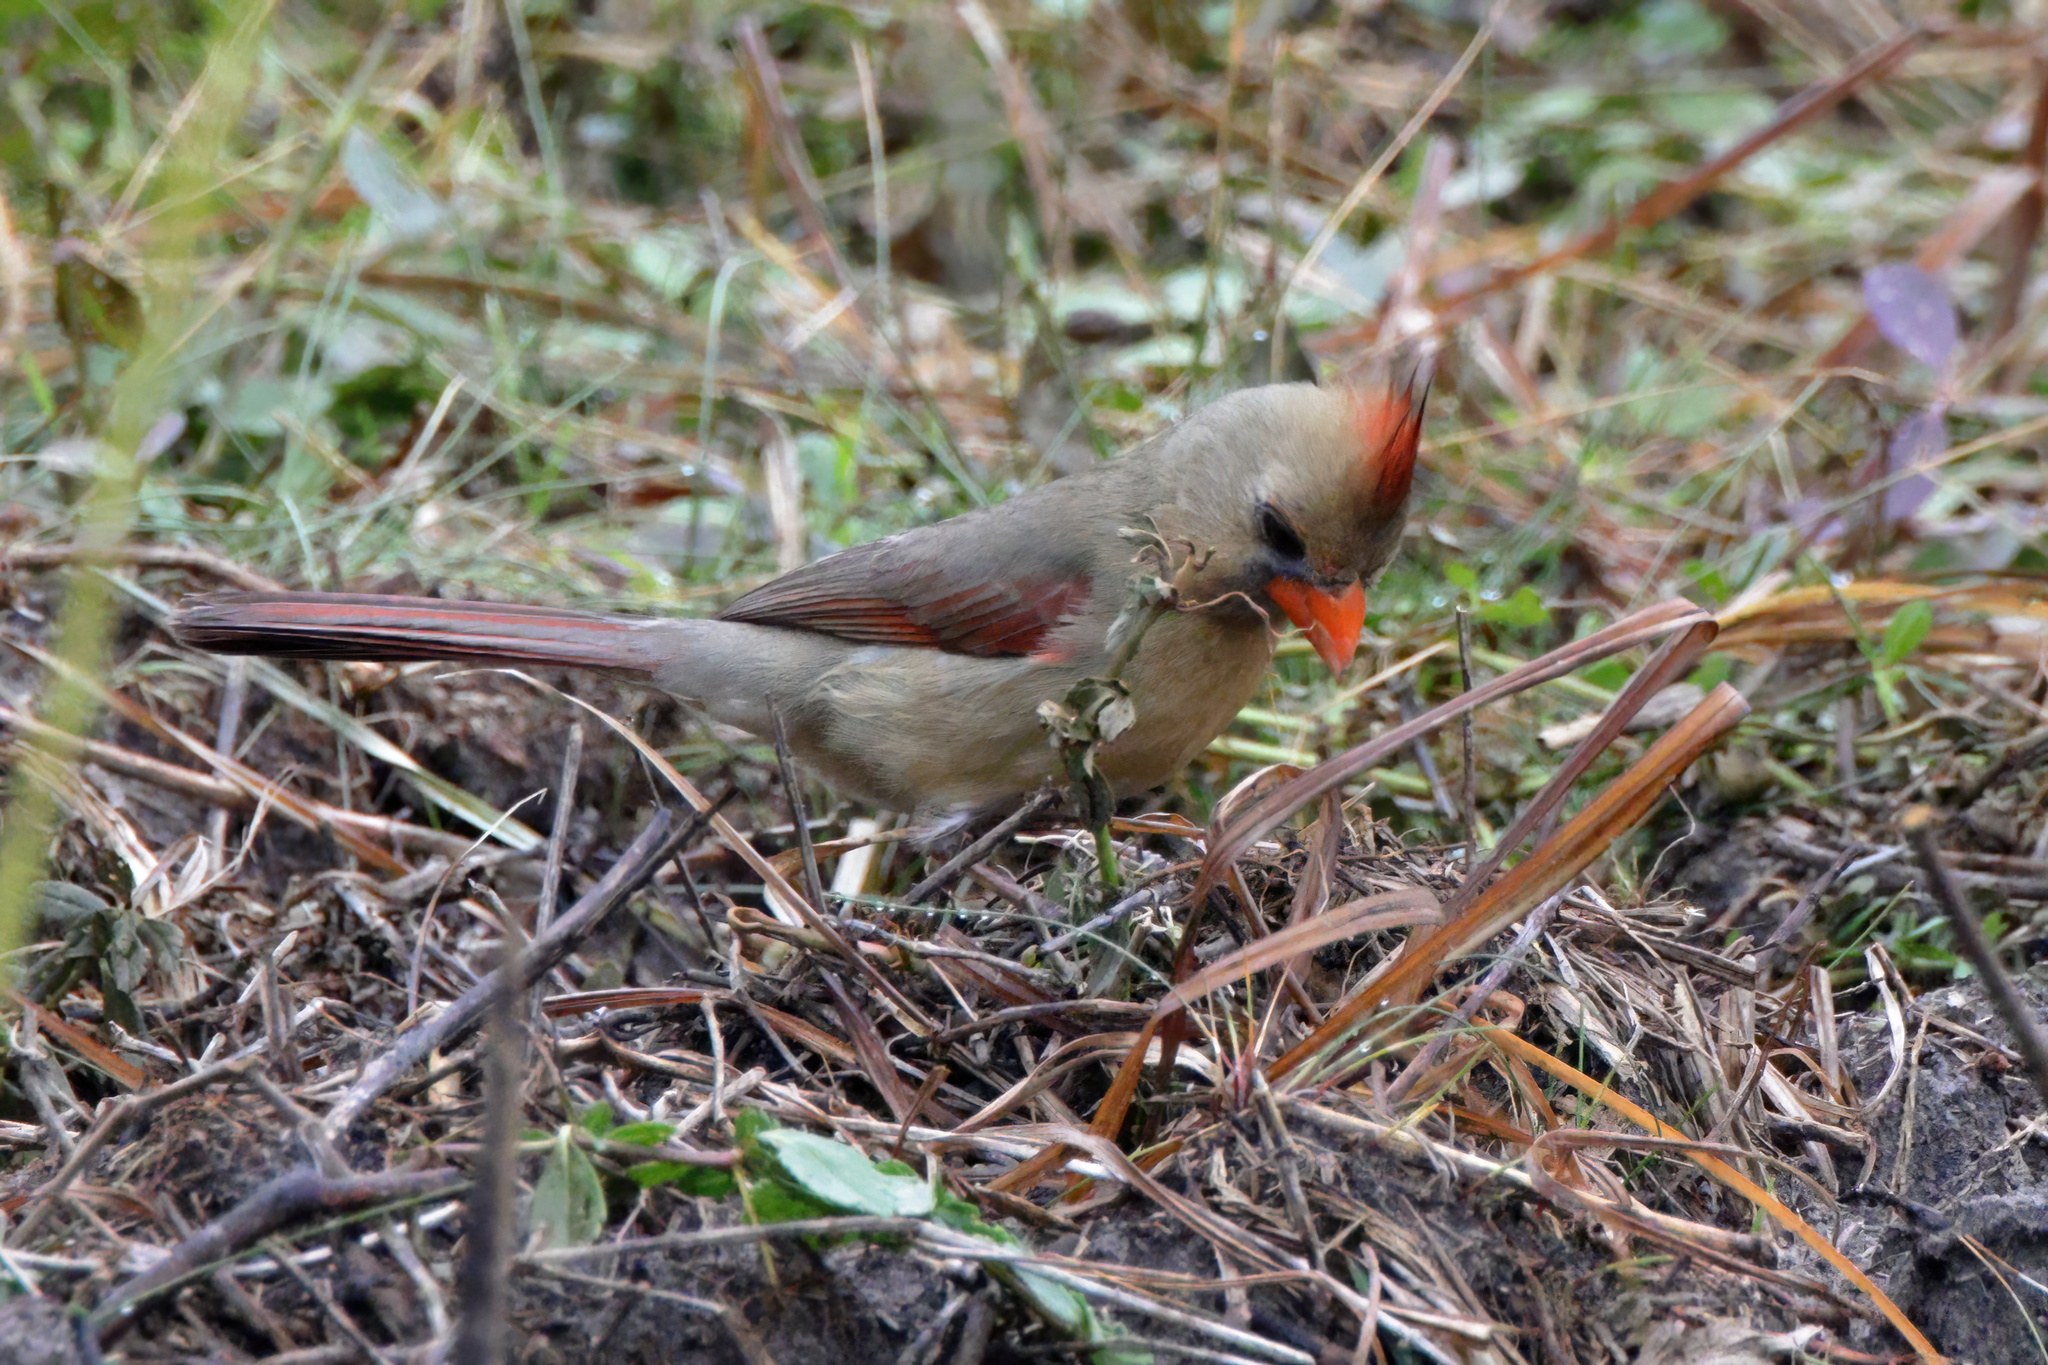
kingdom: Animalia
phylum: Chordata
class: Aves
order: Passeriformes
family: Cardinalidae
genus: Cardinalis
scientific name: Cardinalis cardinalis
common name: Northern cardinal
